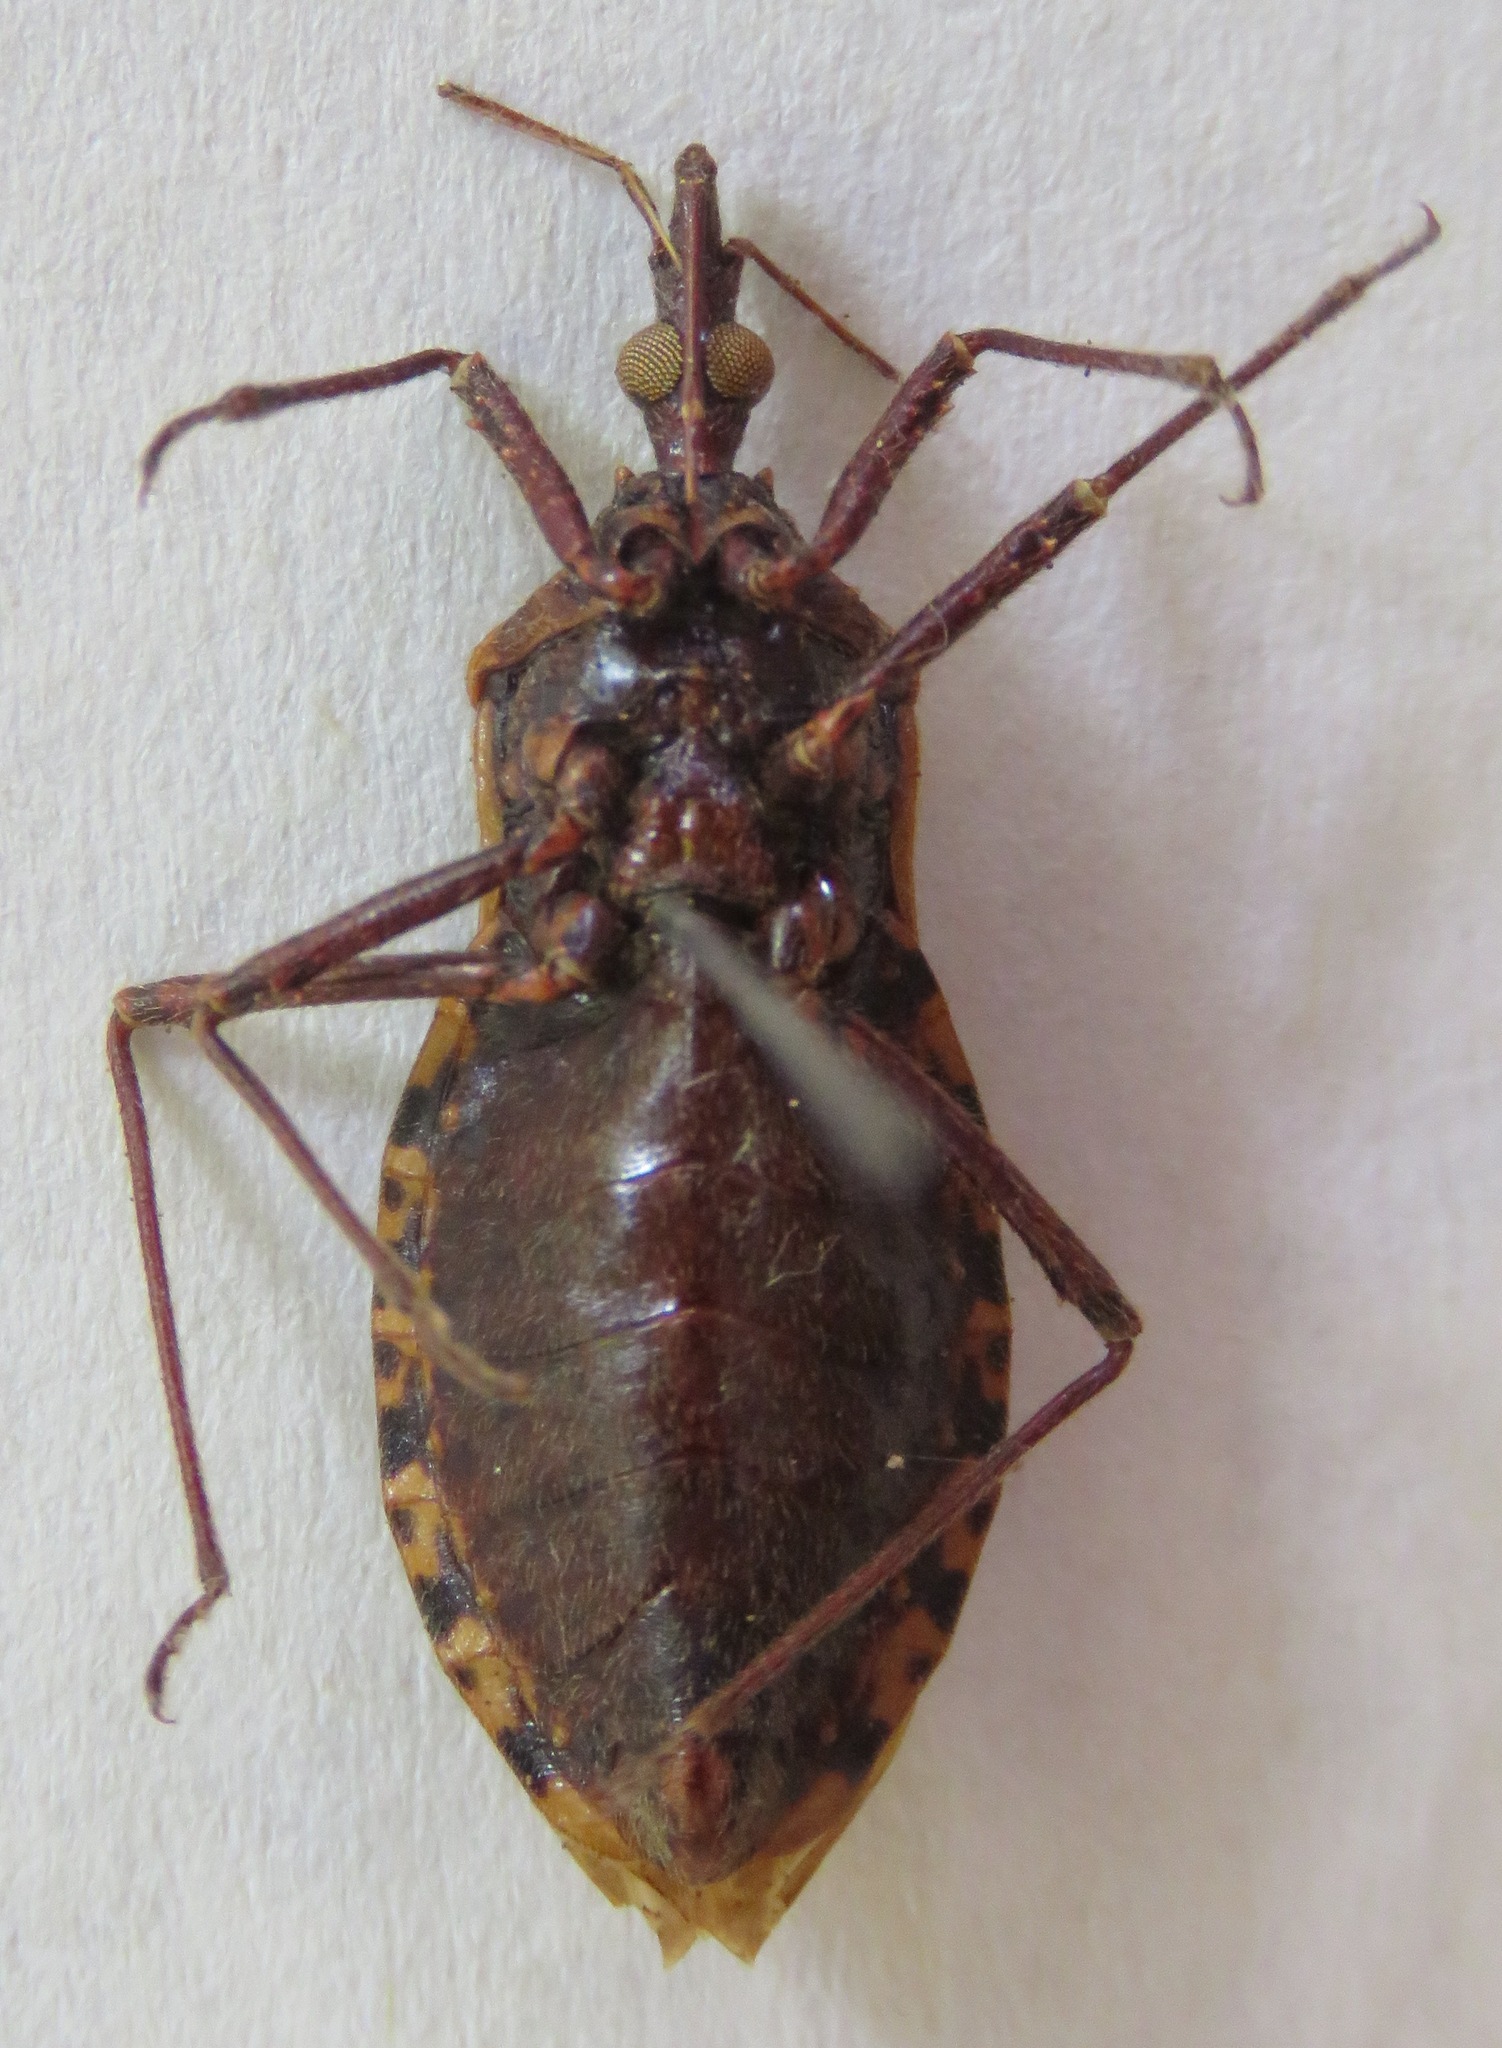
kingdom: Animalia
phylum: Arthropoda
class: Insecta
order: Hemiptera
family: Reduviidae
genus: Triatoma
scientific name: Triatoma dispar
